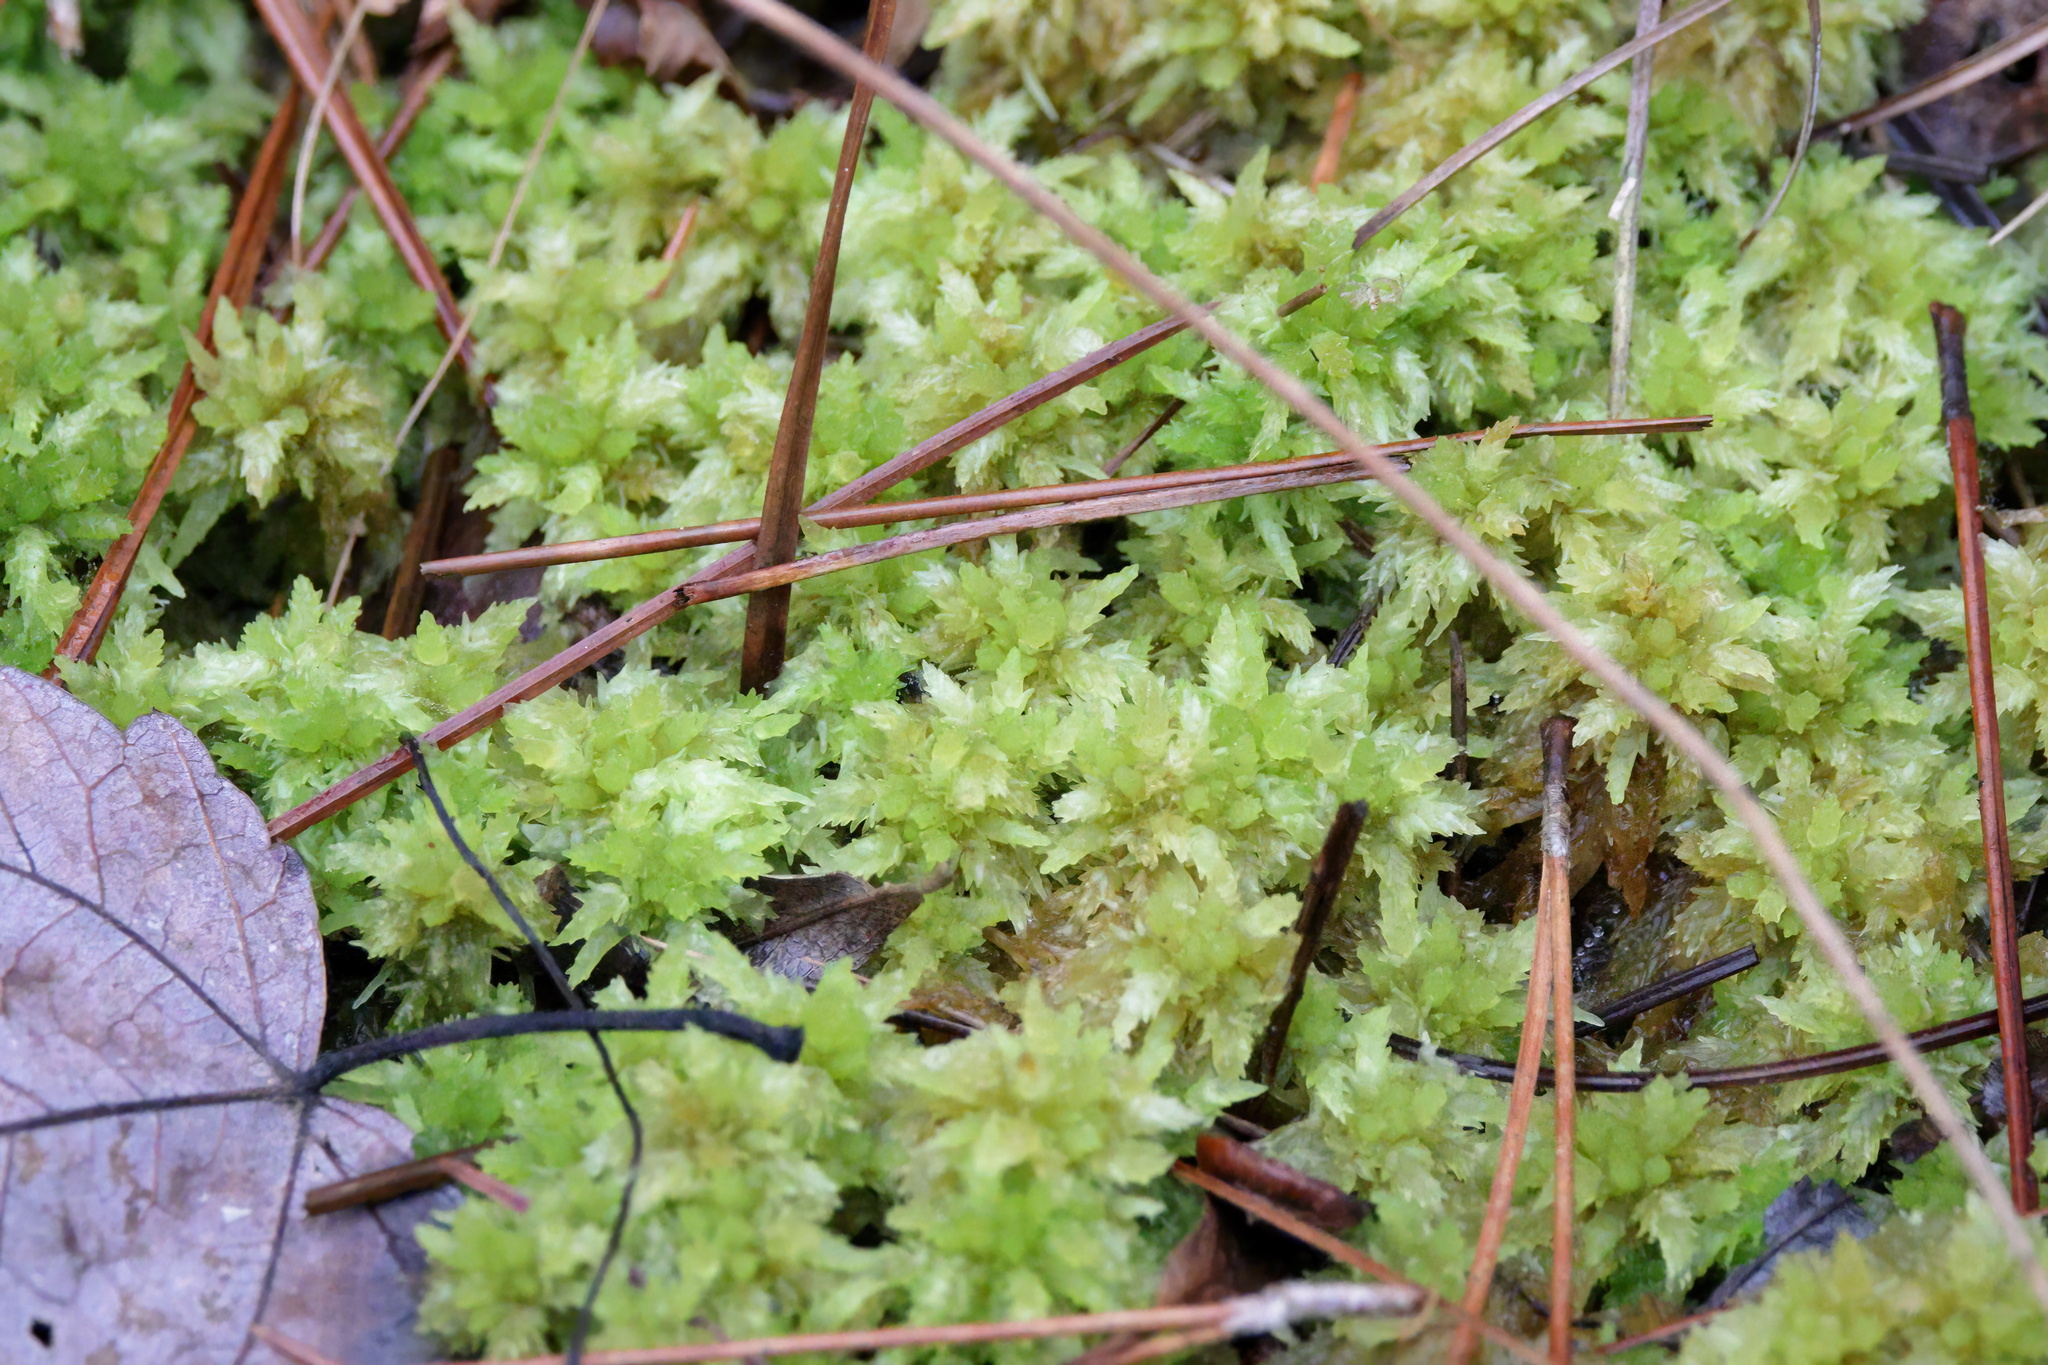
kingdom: Plantae
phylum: Bryophyta
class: Sphagnopsida
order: Sphagnales
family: Sphagnaceae
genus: Sphagnum
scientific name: Sphagnum perichaetiale
